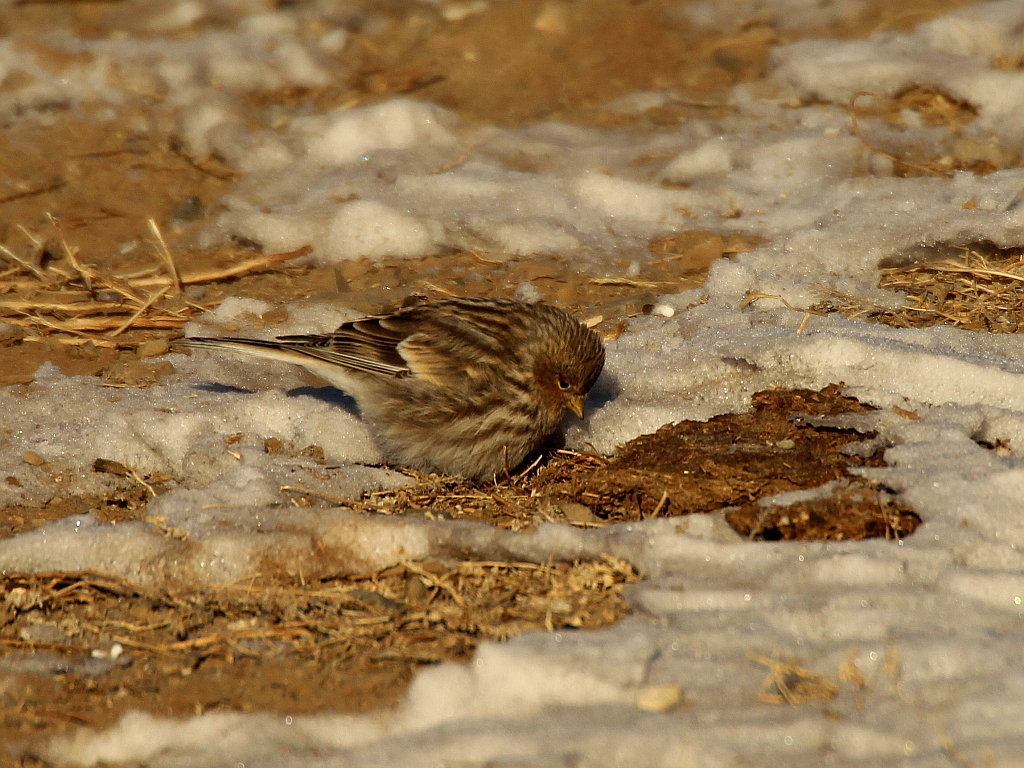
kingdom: Animalia
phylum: Chordata
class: Aves
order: Passeriformes
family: Fringillidae
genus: Linaria
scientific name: Linaria flavirostris
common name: Twite
